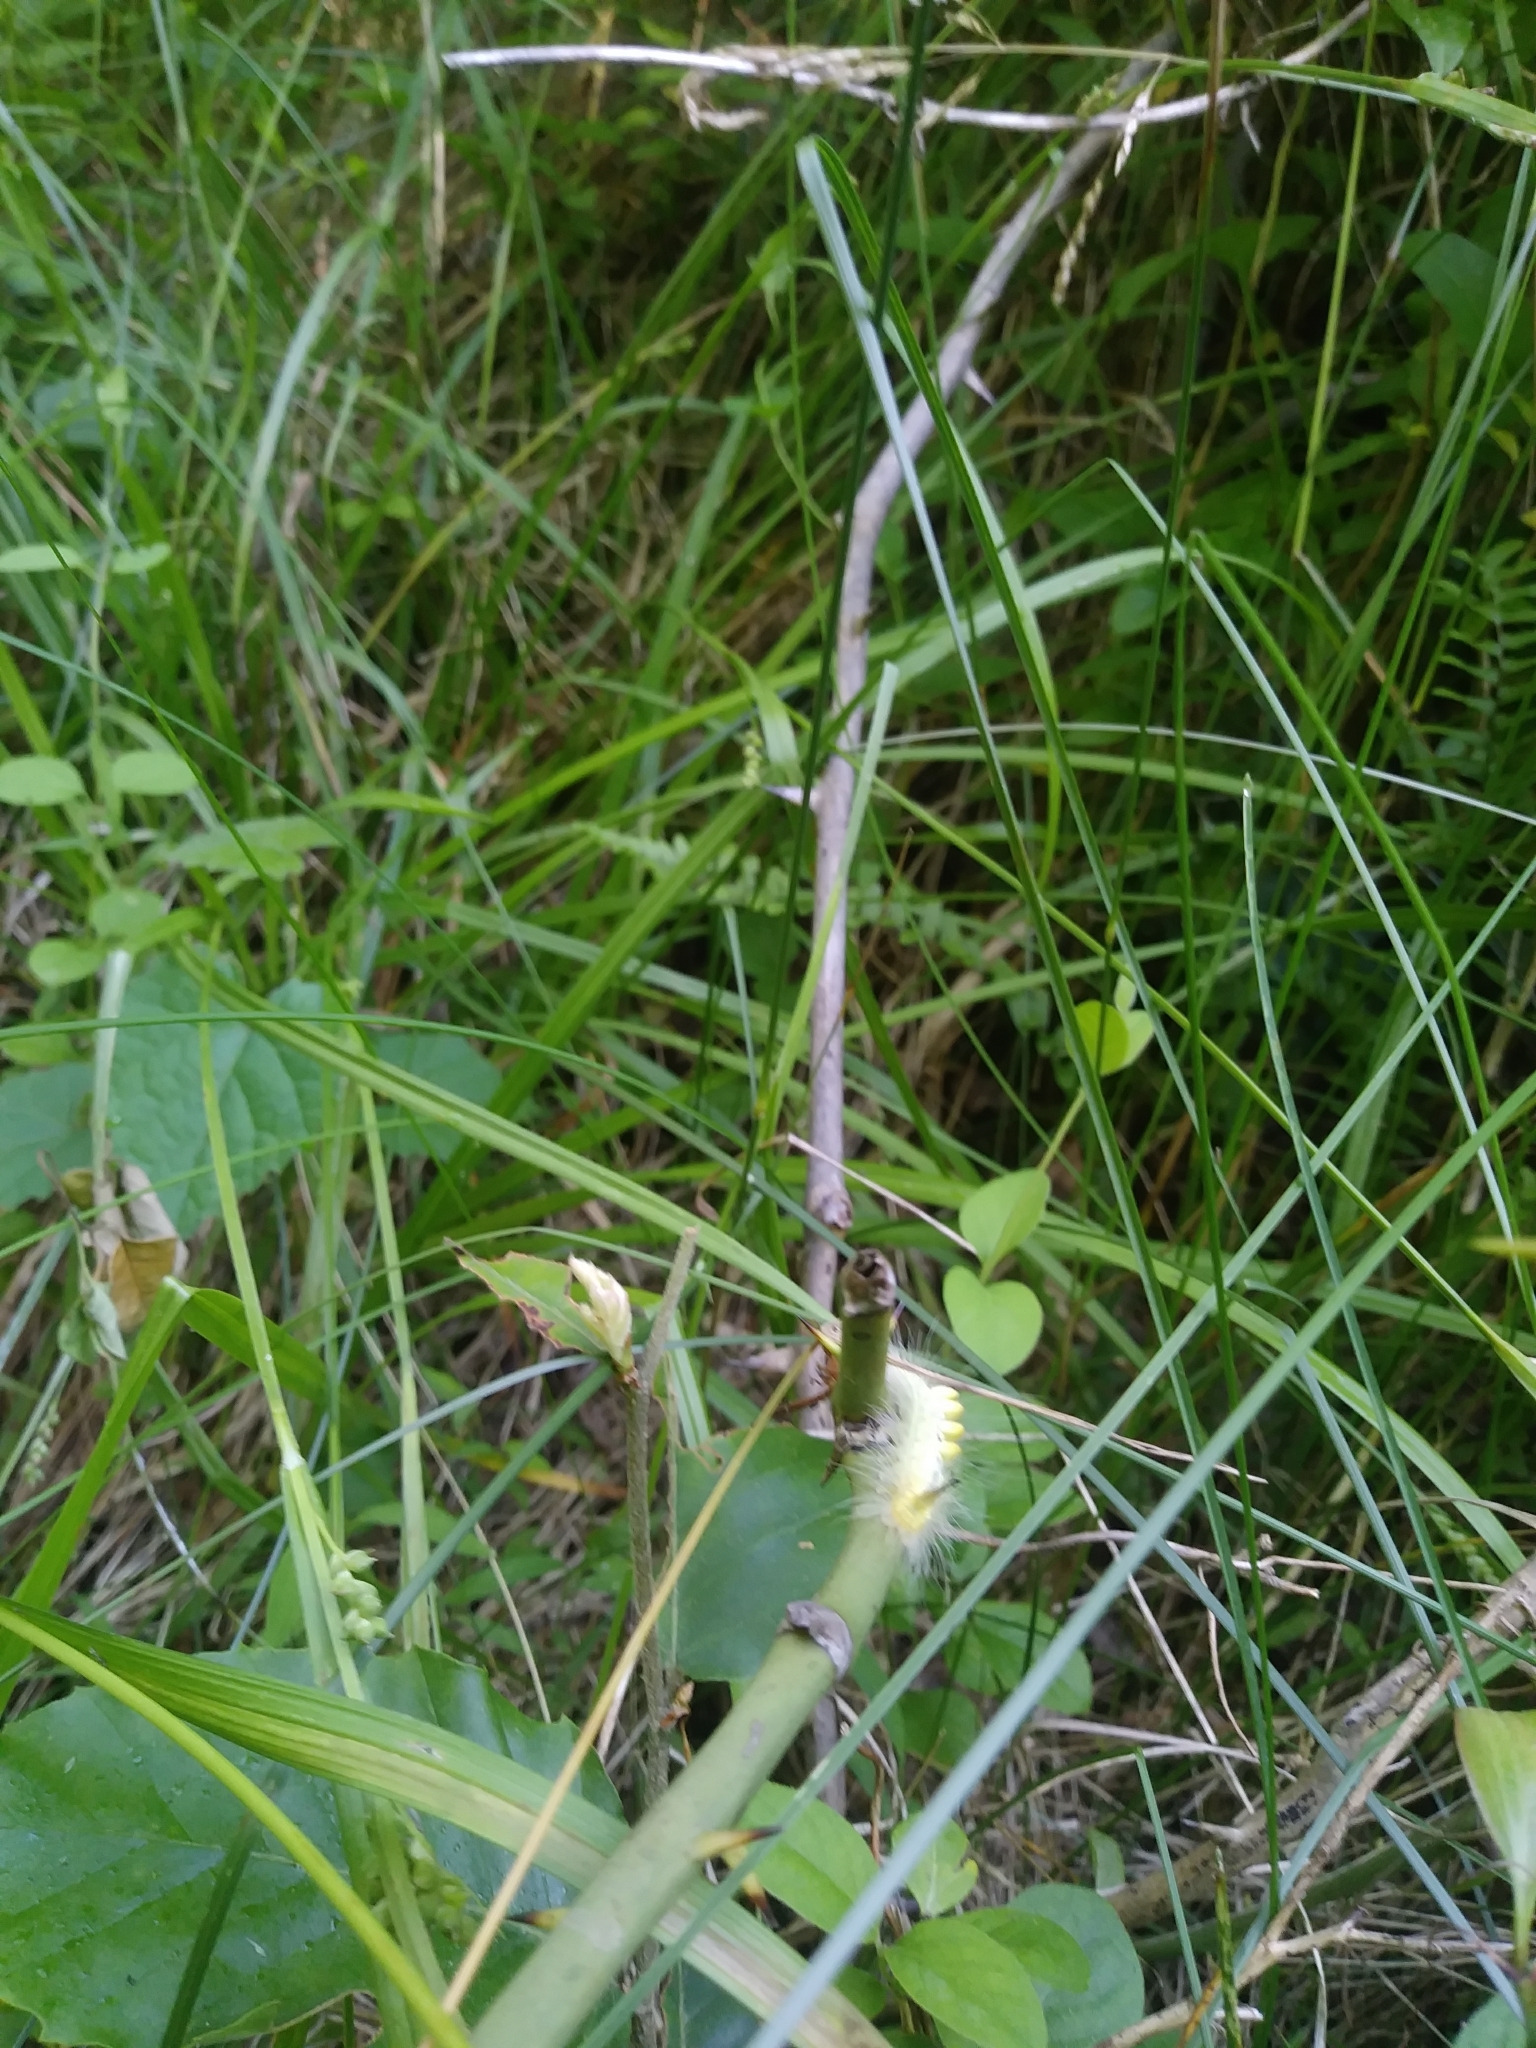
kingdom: Animalia
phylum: Arthropoda
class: Insecta
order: Lepidoptera
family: Erebidae
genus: Orgyia
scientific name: Orgyia definita
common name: Definite tussock moth
